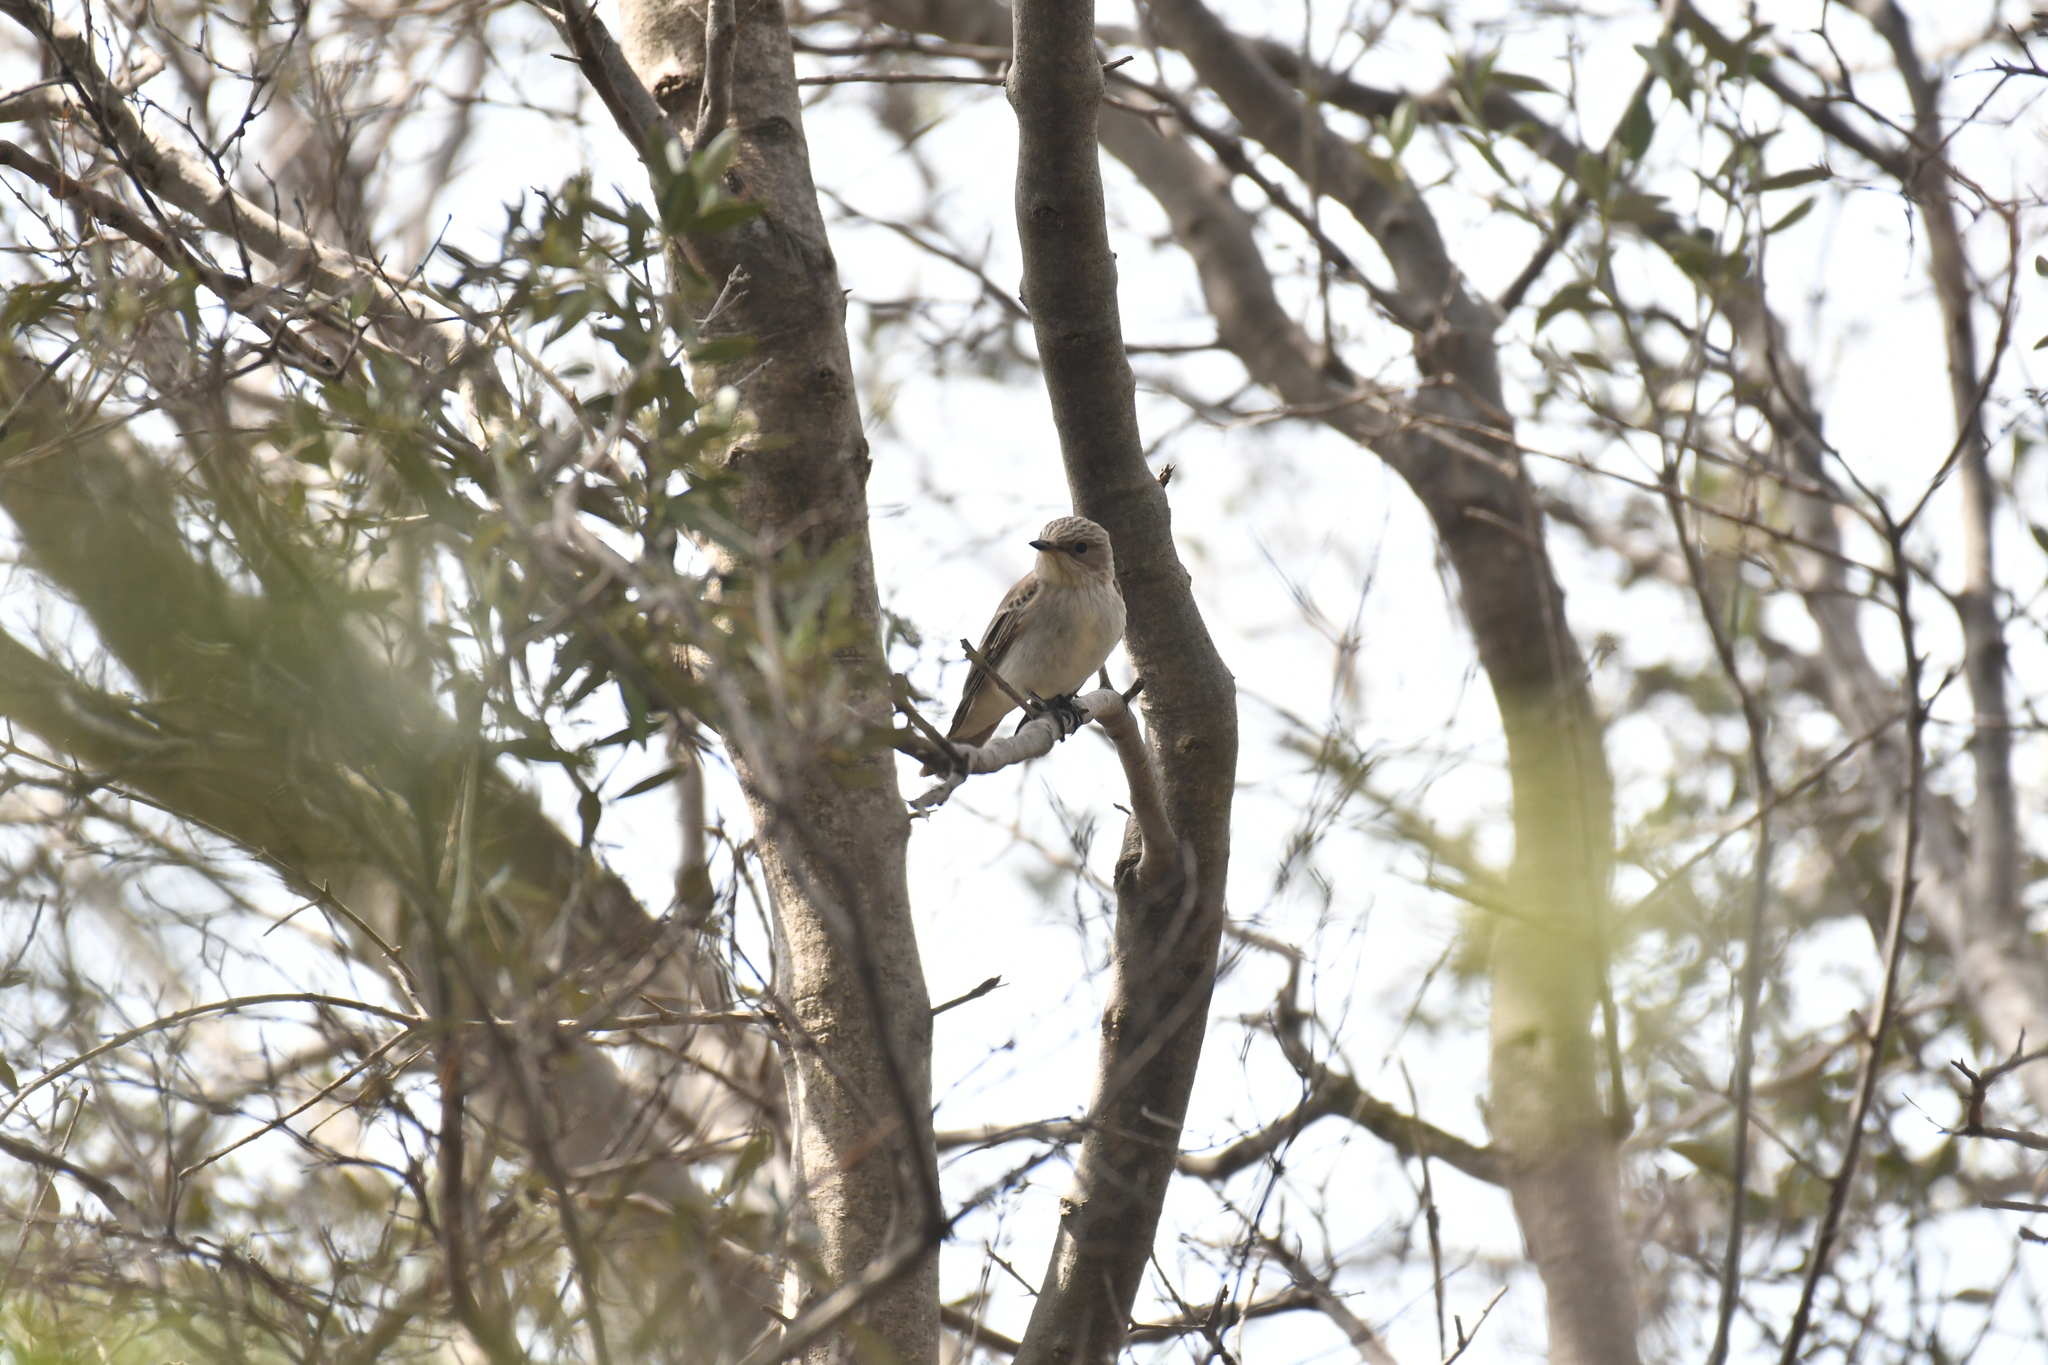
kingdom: Animalia
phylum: Chordata
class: Aves
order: Passeriformes
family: Muscicapidae
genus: Muscicapa
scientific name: Muscicapa striata
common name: Spotted flycatcher
